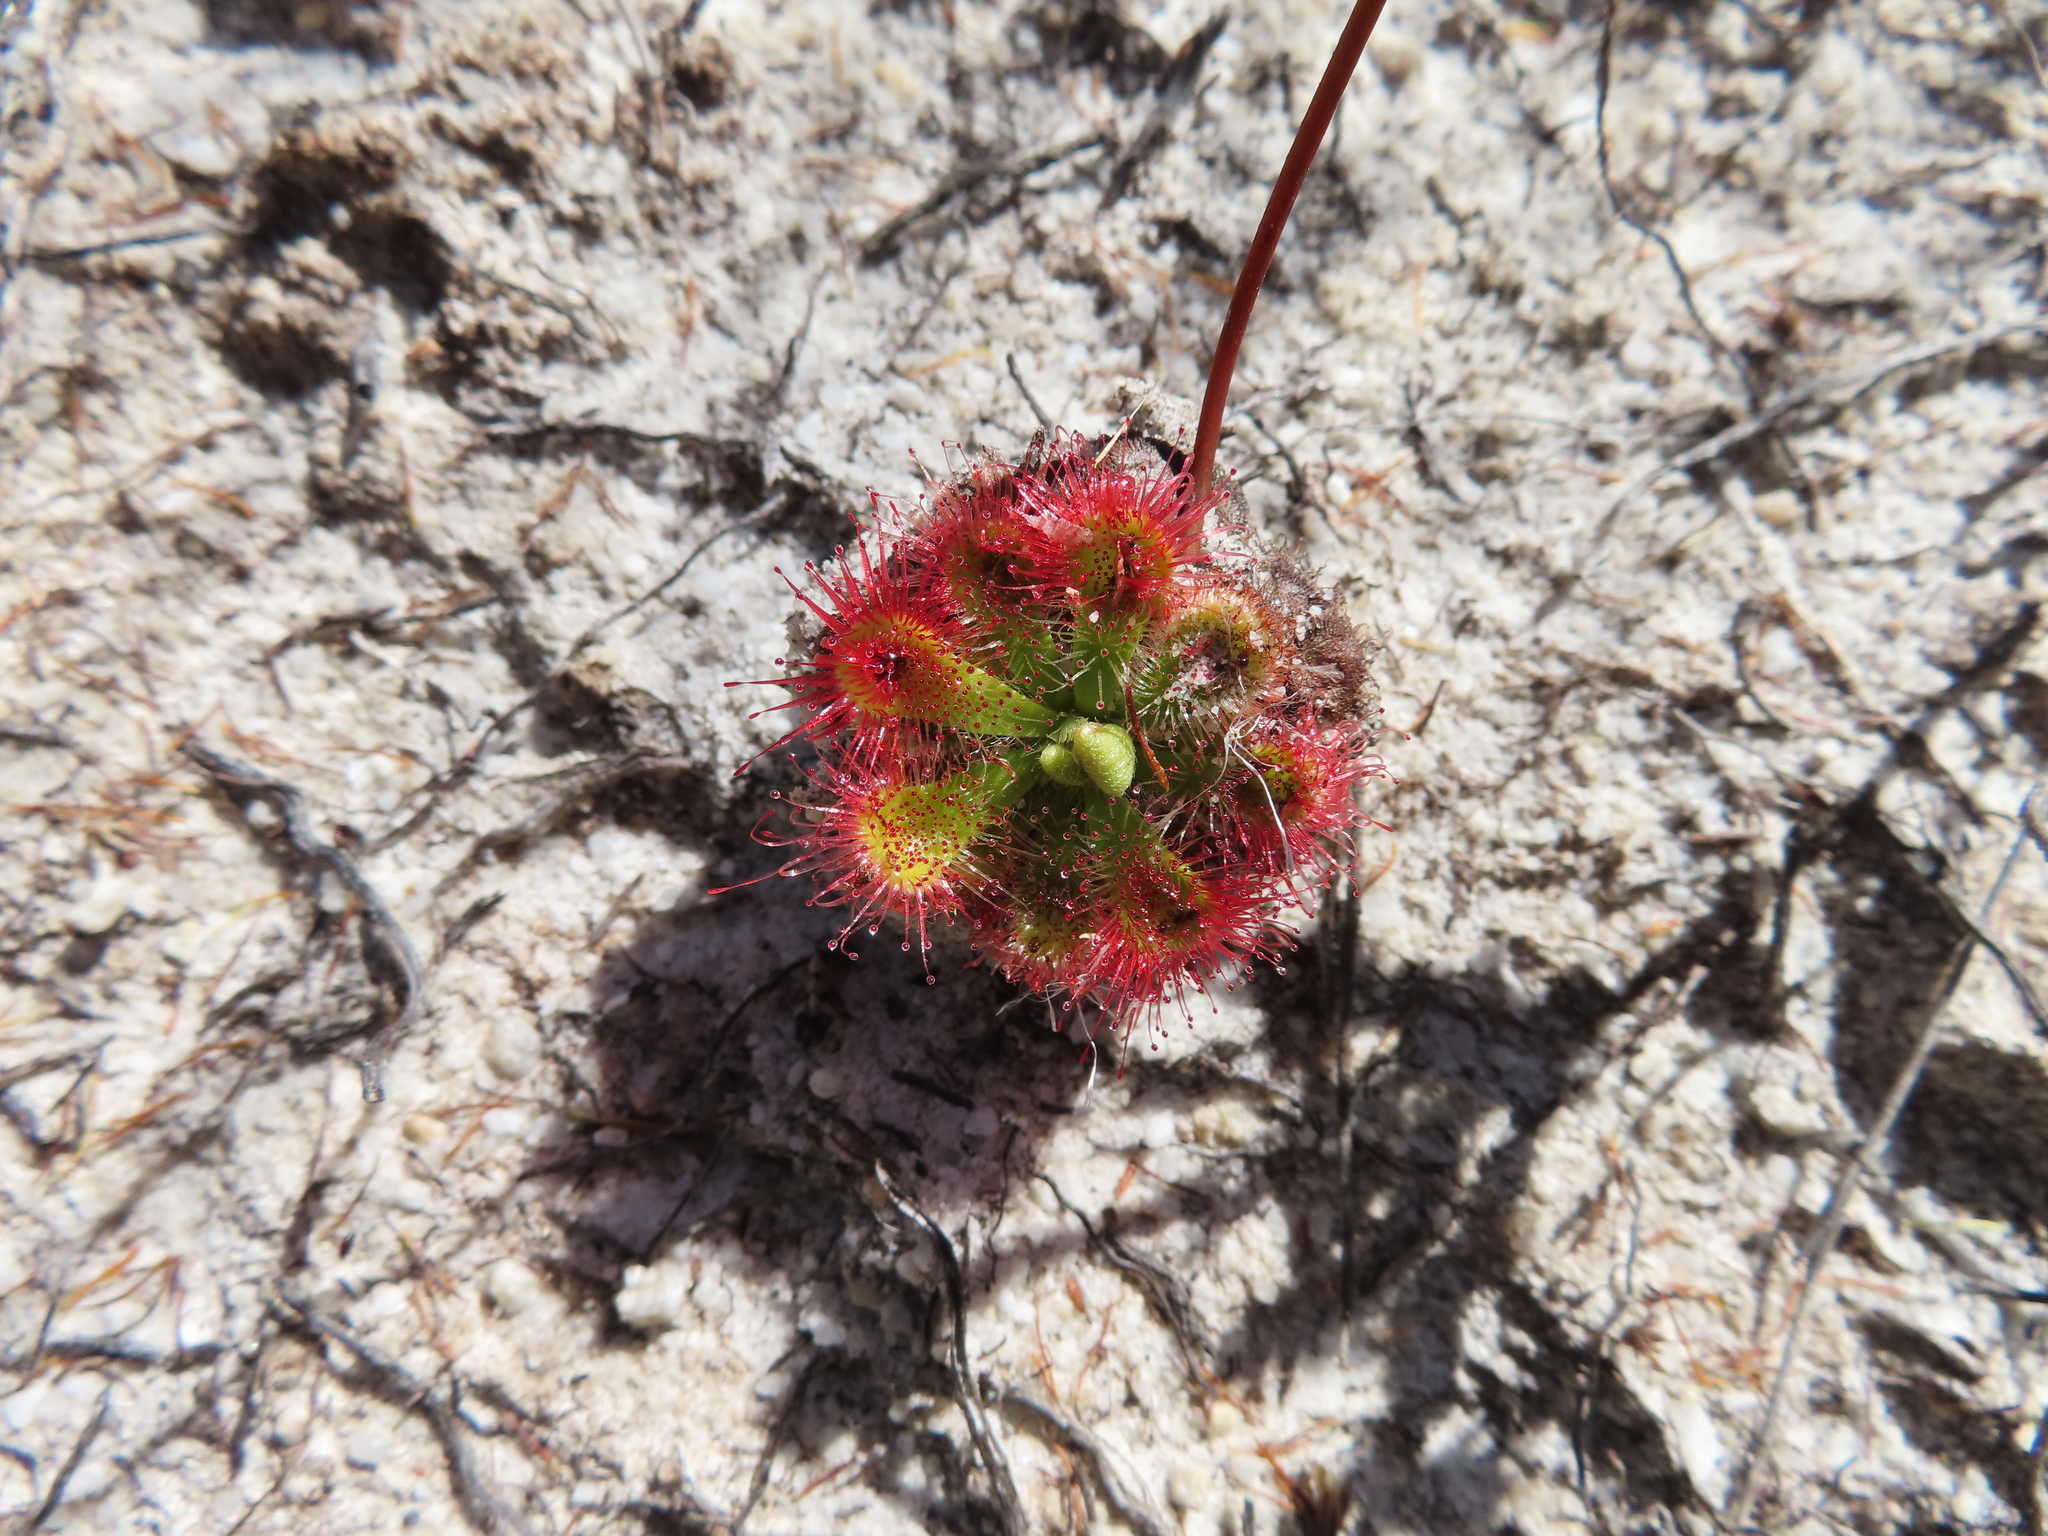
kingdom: Plantae
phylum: Tracheophyta
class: Magnoliopsida
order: Caryophyllales
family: Droseraceae
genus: Drosera
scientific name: Drosera xerophila
